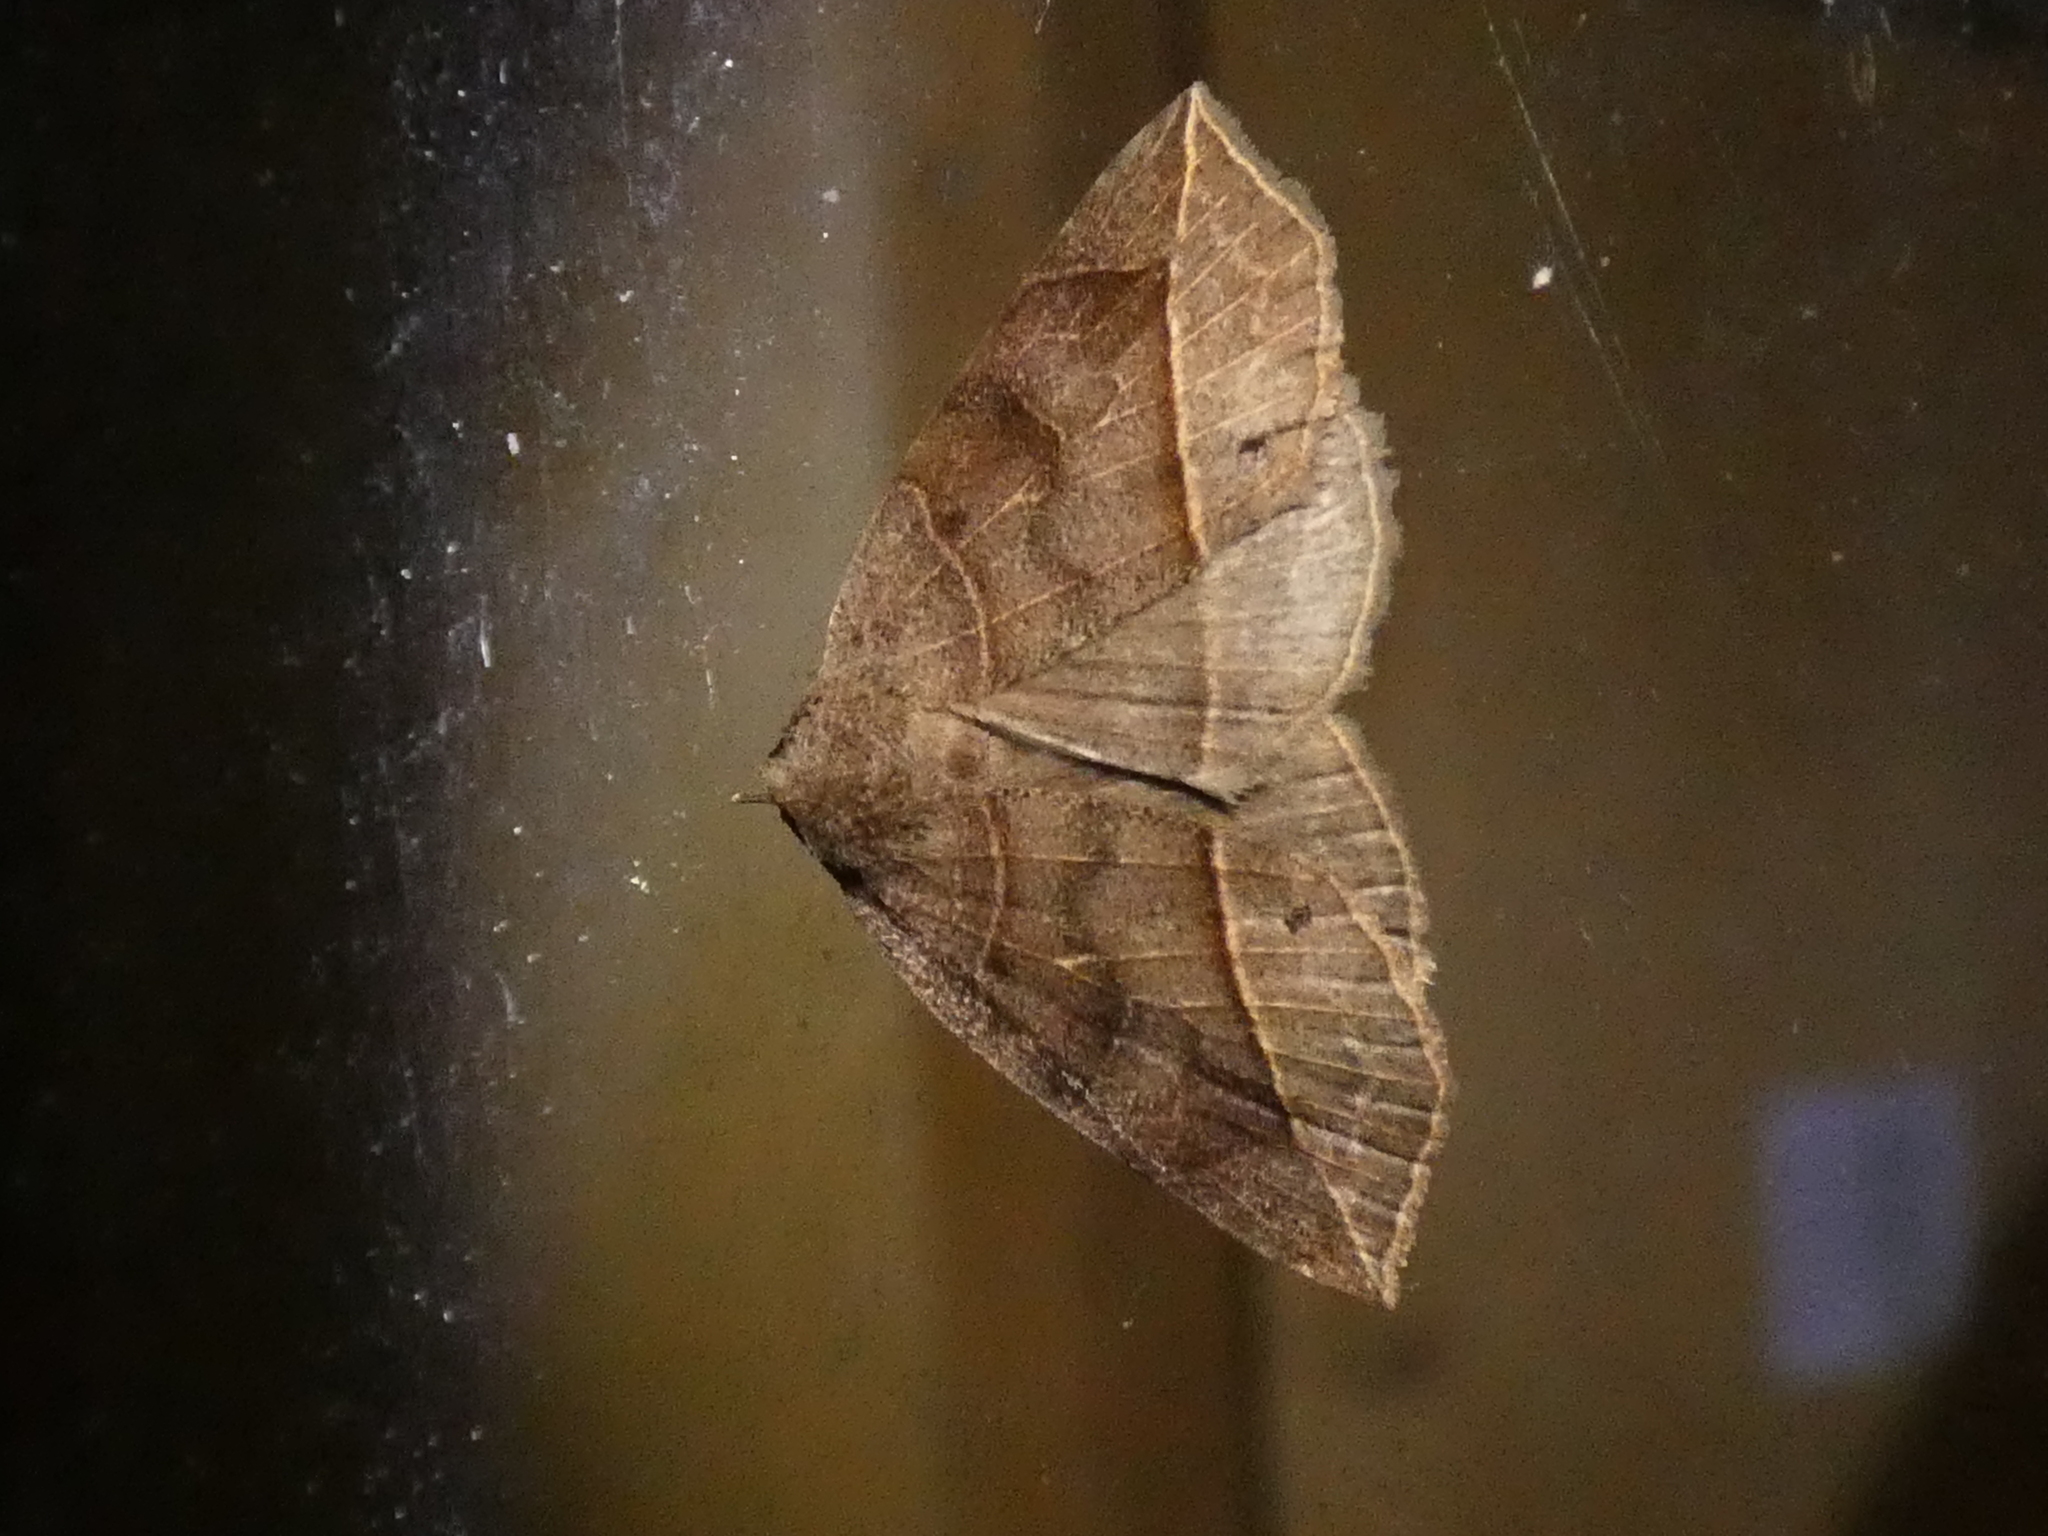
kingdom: Animalia
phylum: Arthropoda
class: Insecta
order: Lepidoptera
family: Erebidae
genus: Isogona
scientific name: Isogona tenuis
